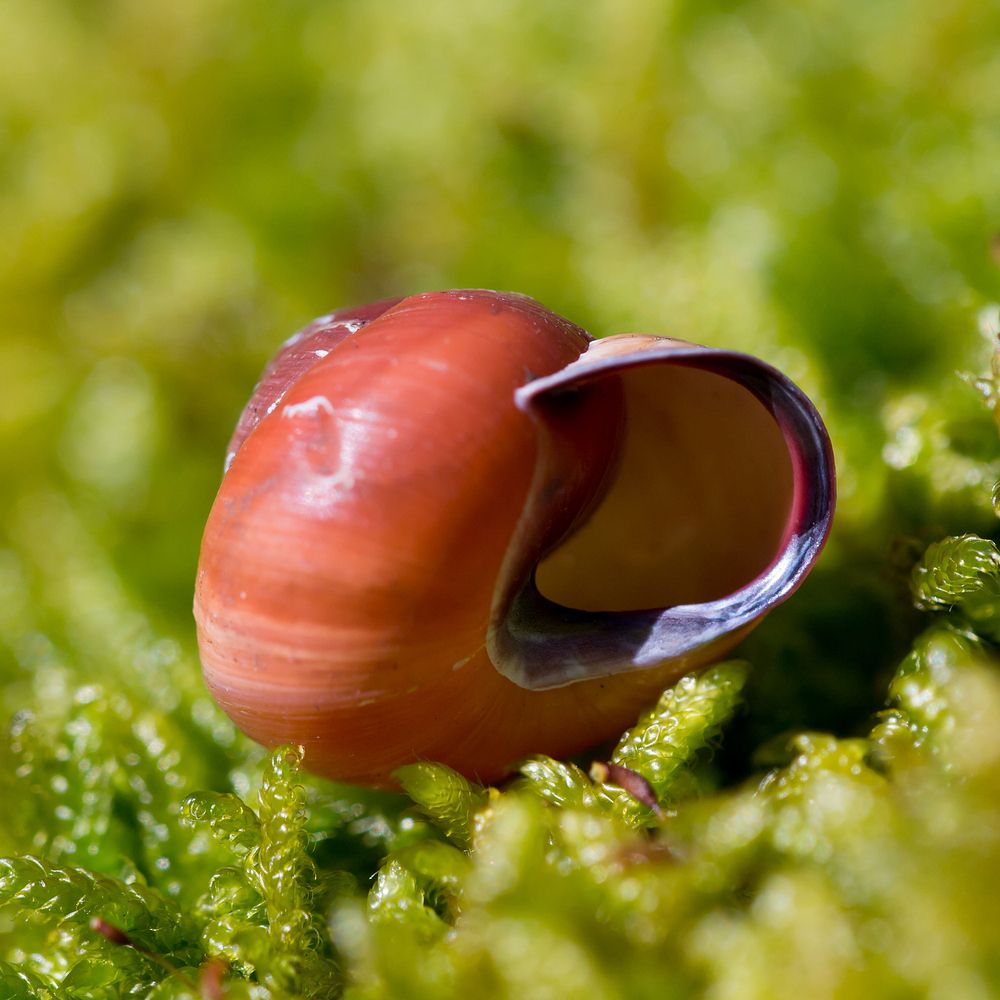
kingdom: Animalia
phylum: Mollusca
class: Gastropoda
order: Stylommatophora
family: Helicidae
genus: Cepaea
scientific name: Cepaea nemoralis
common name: Grovesnail
